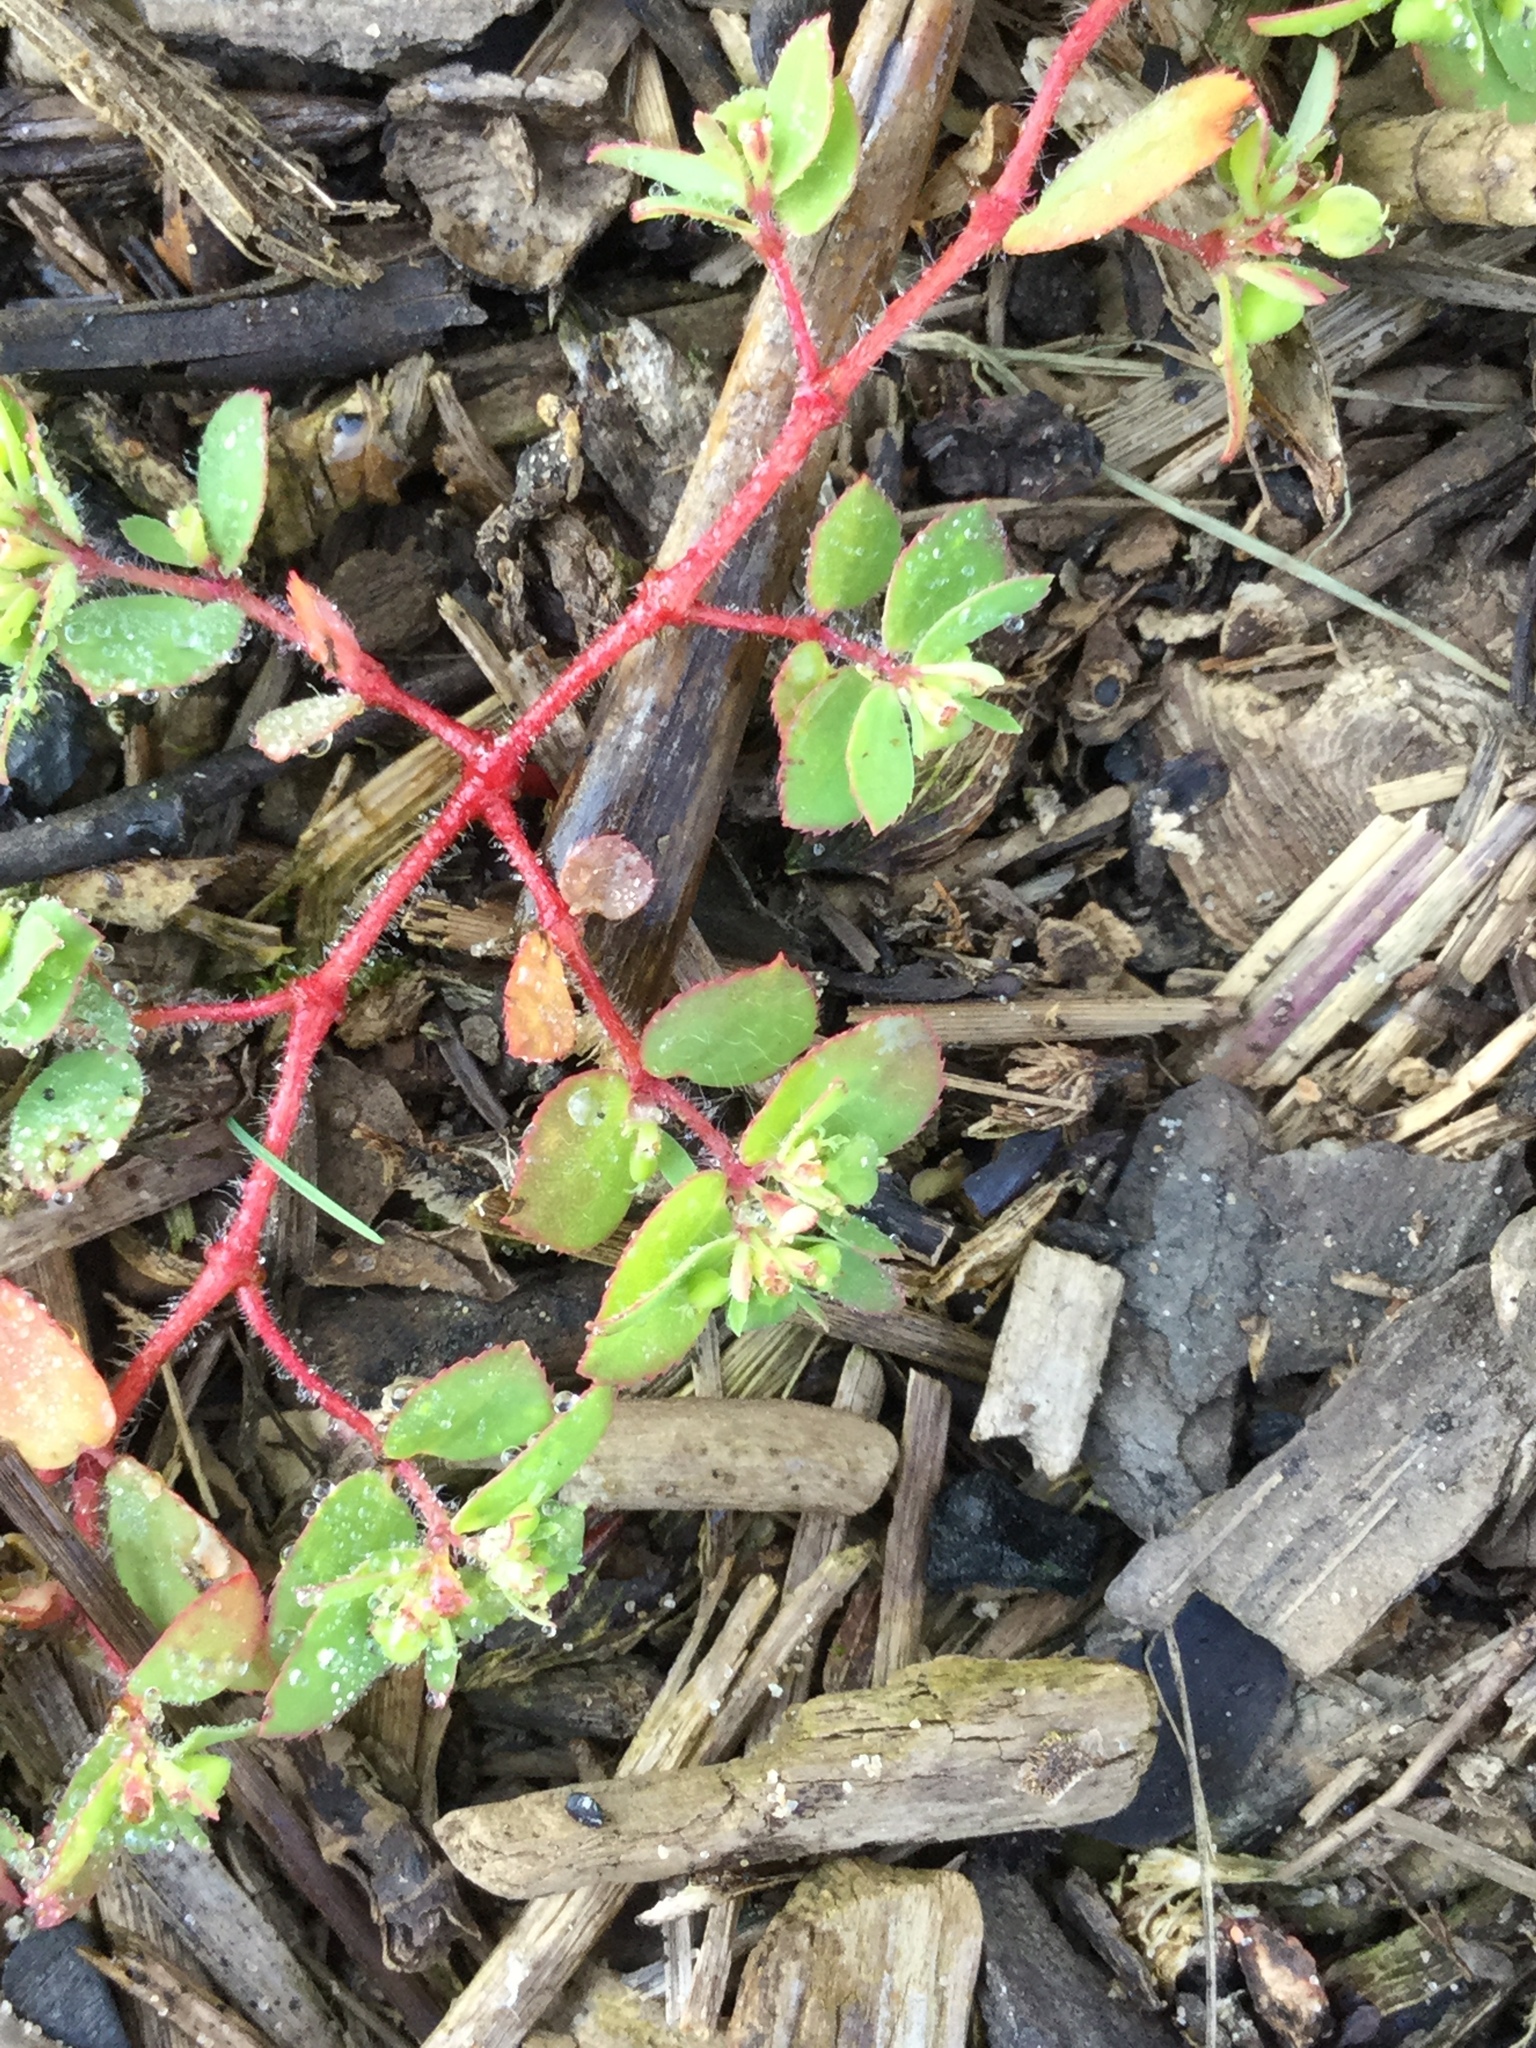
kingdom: Plantae
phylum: Tracheophyta
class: Magnoliopsida
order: Malpighiales
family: Euphorbiaceae
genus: Euphorbia
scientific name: Euphorbia vermiculata
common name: Hairy spurge
